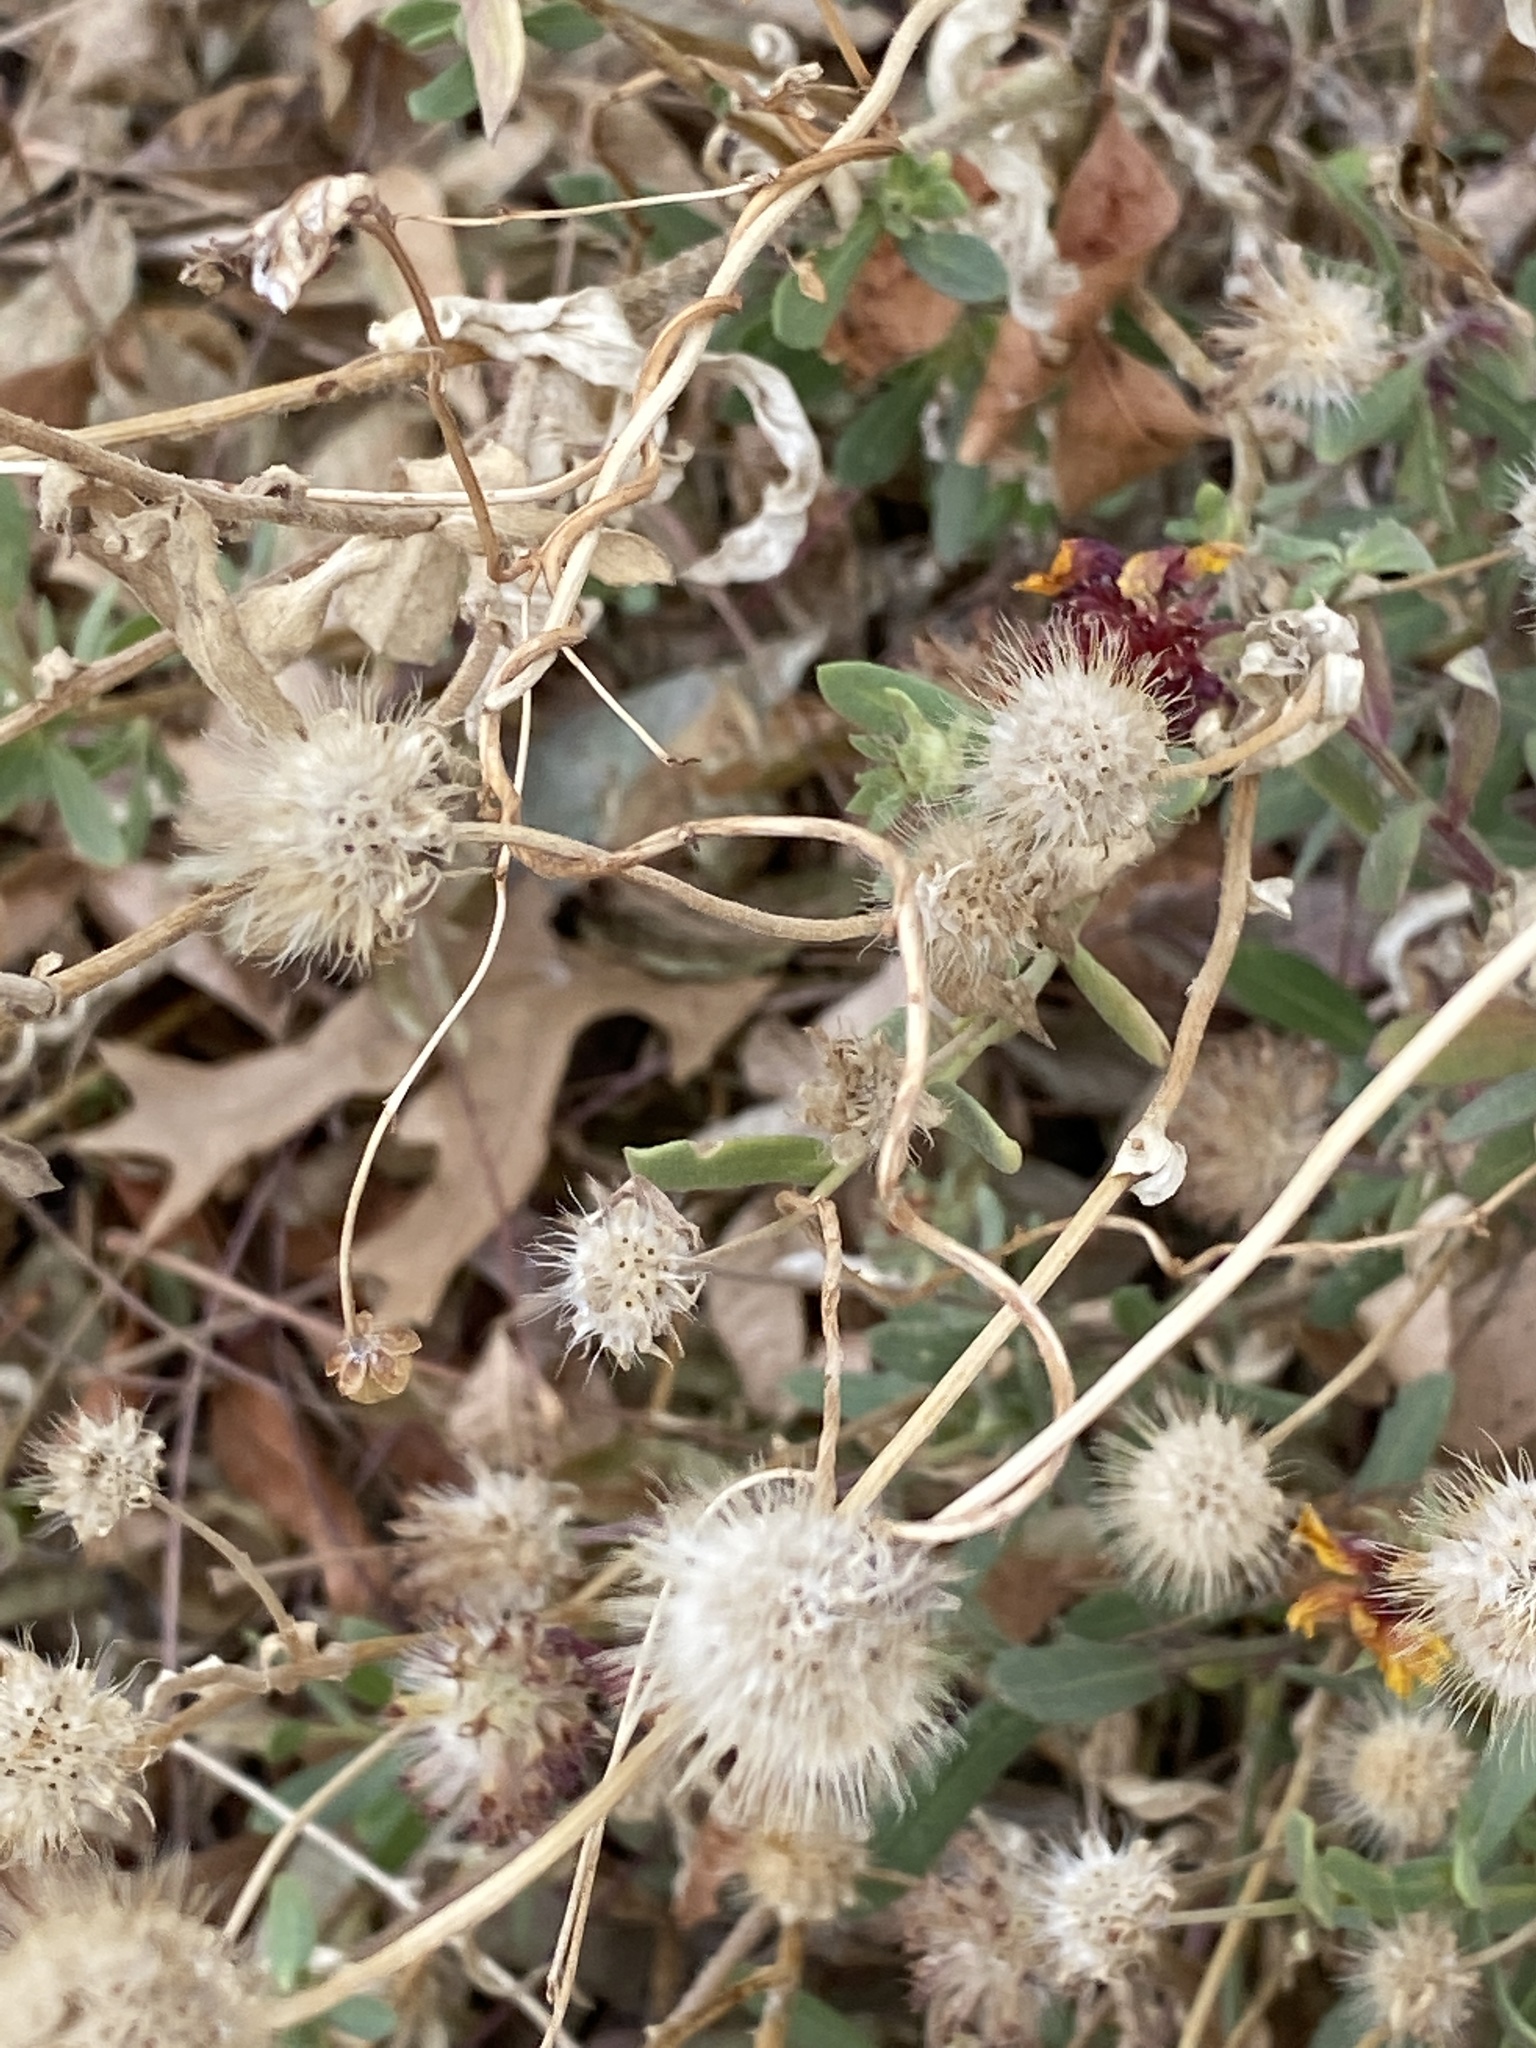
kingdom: Plantae
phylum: Tracheophyta
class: Magnoliopsida
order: Asterales
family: Asteraceae
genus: Gaillardia
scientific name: Gaillardia pulchella
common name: Firewheel
